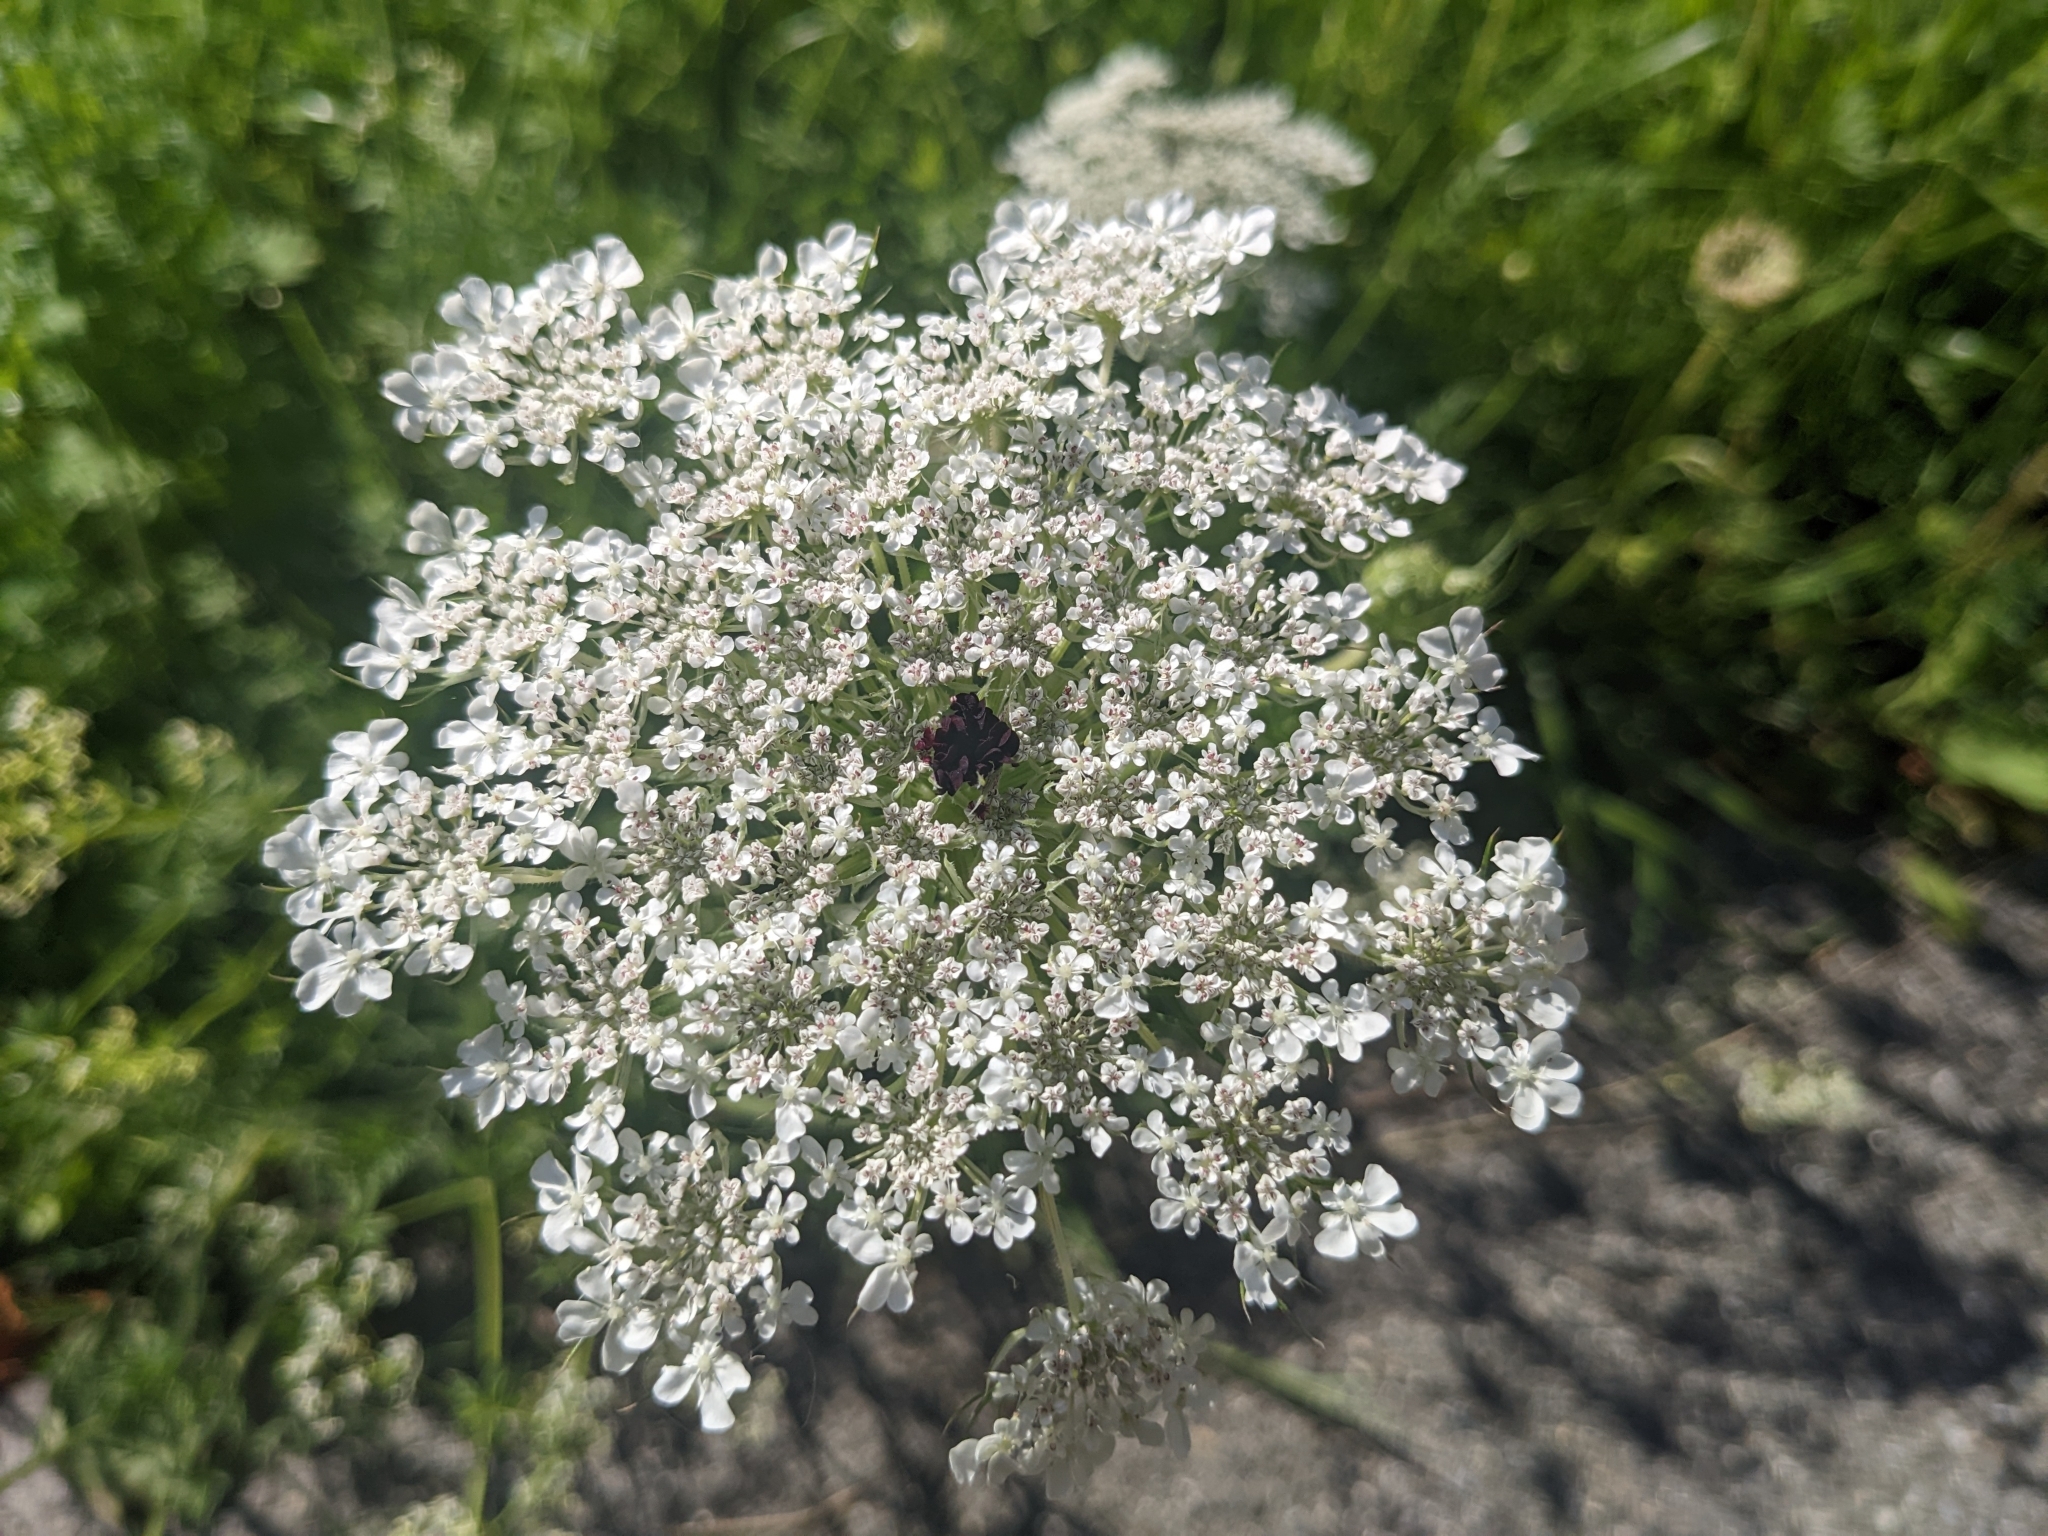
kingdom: Plantae
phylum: Tracheophyta
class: Magnoliopsida
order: Apiales
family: Apiaceae
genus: Daucus
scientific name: Daucus carota
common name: Wild carrot
